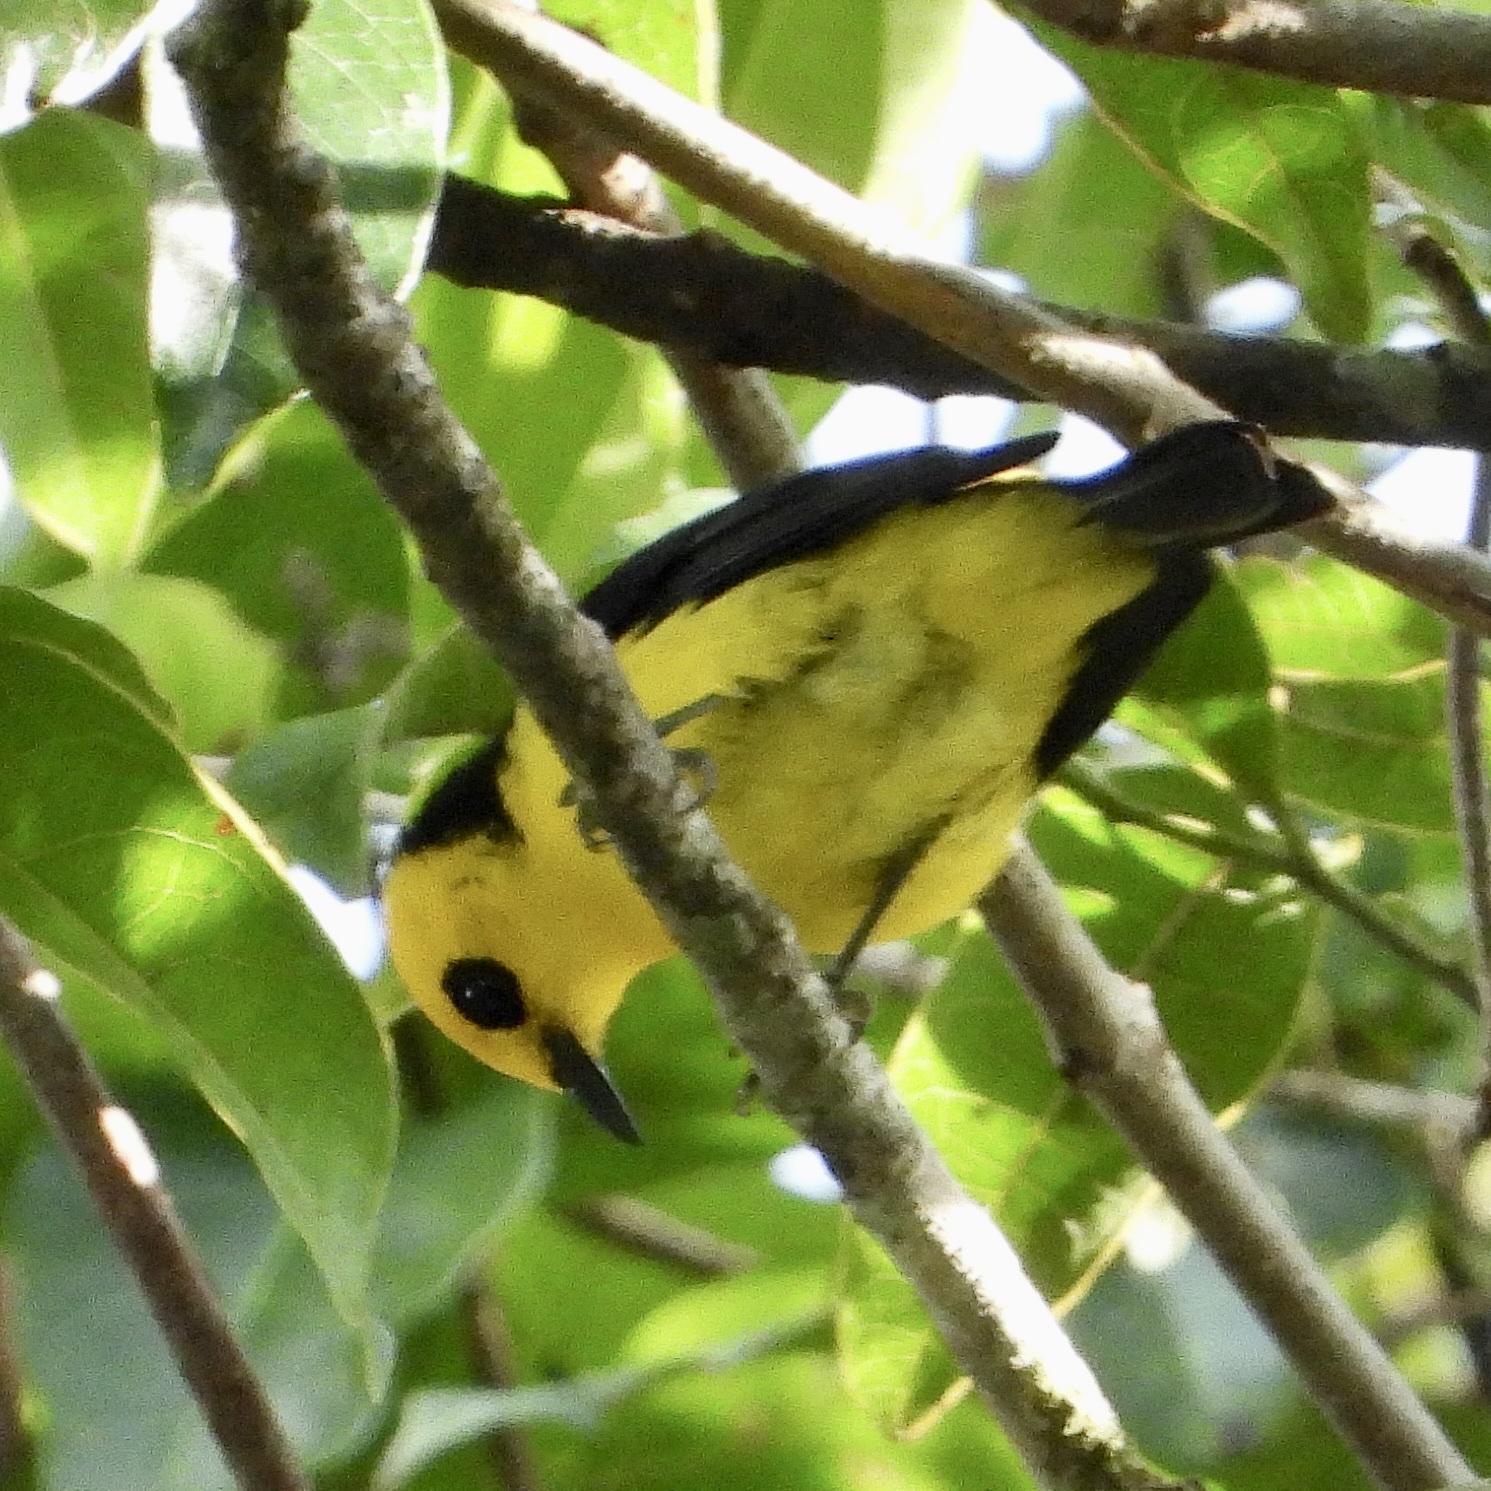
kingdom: Animalia
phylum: Chordata
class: Aves
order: Passeriformes
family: Thraupidae
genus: Chrysothlypis
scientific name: Chrysothlypis chrysomelas
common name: Black-and-yellow tanager
